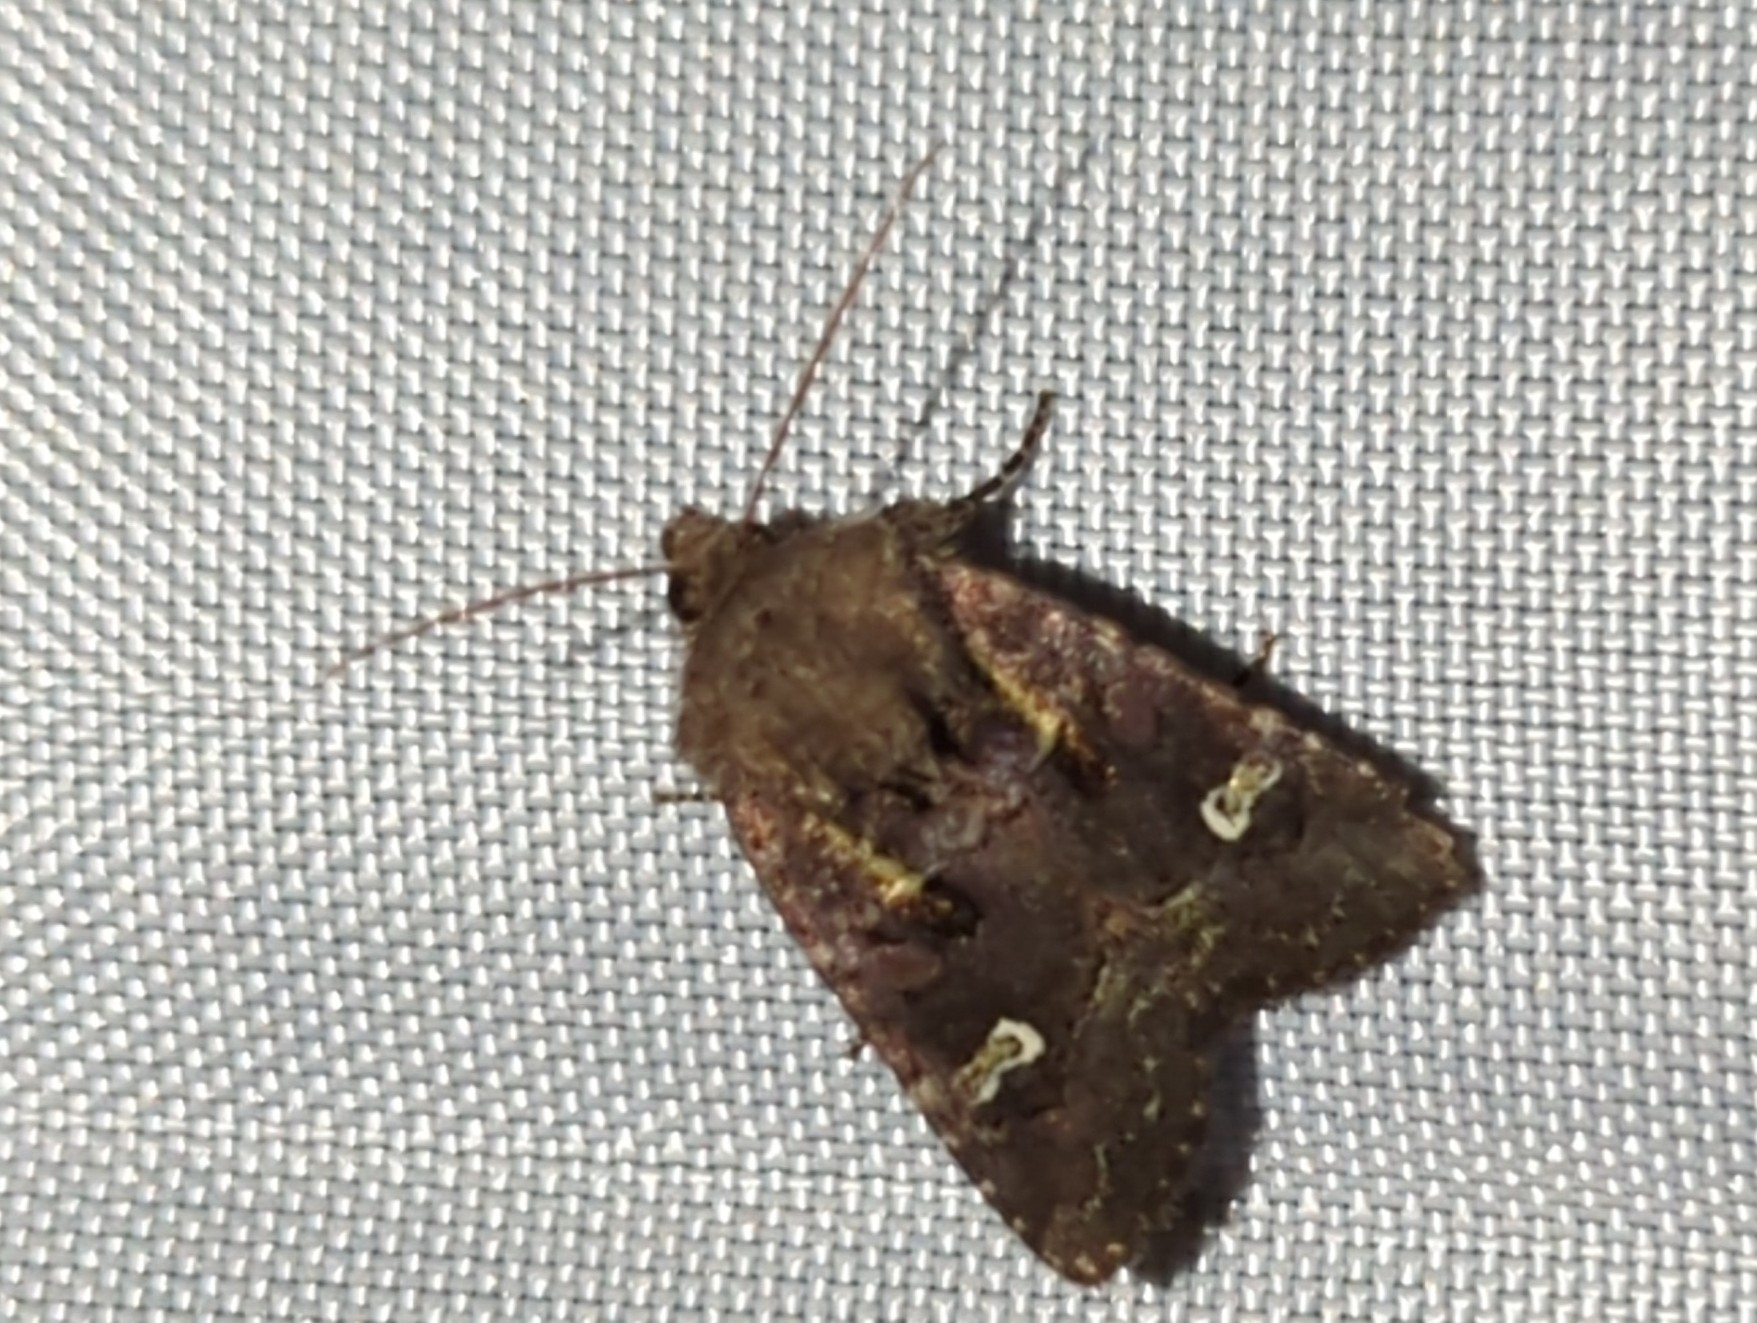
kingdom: Animalia
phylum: Arthropoda
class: Insecta
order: Lepidoptera
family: Noctuidae
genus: Lacinipolia
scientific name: Lacinipolia renigera
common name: Kidney-spotted minor
